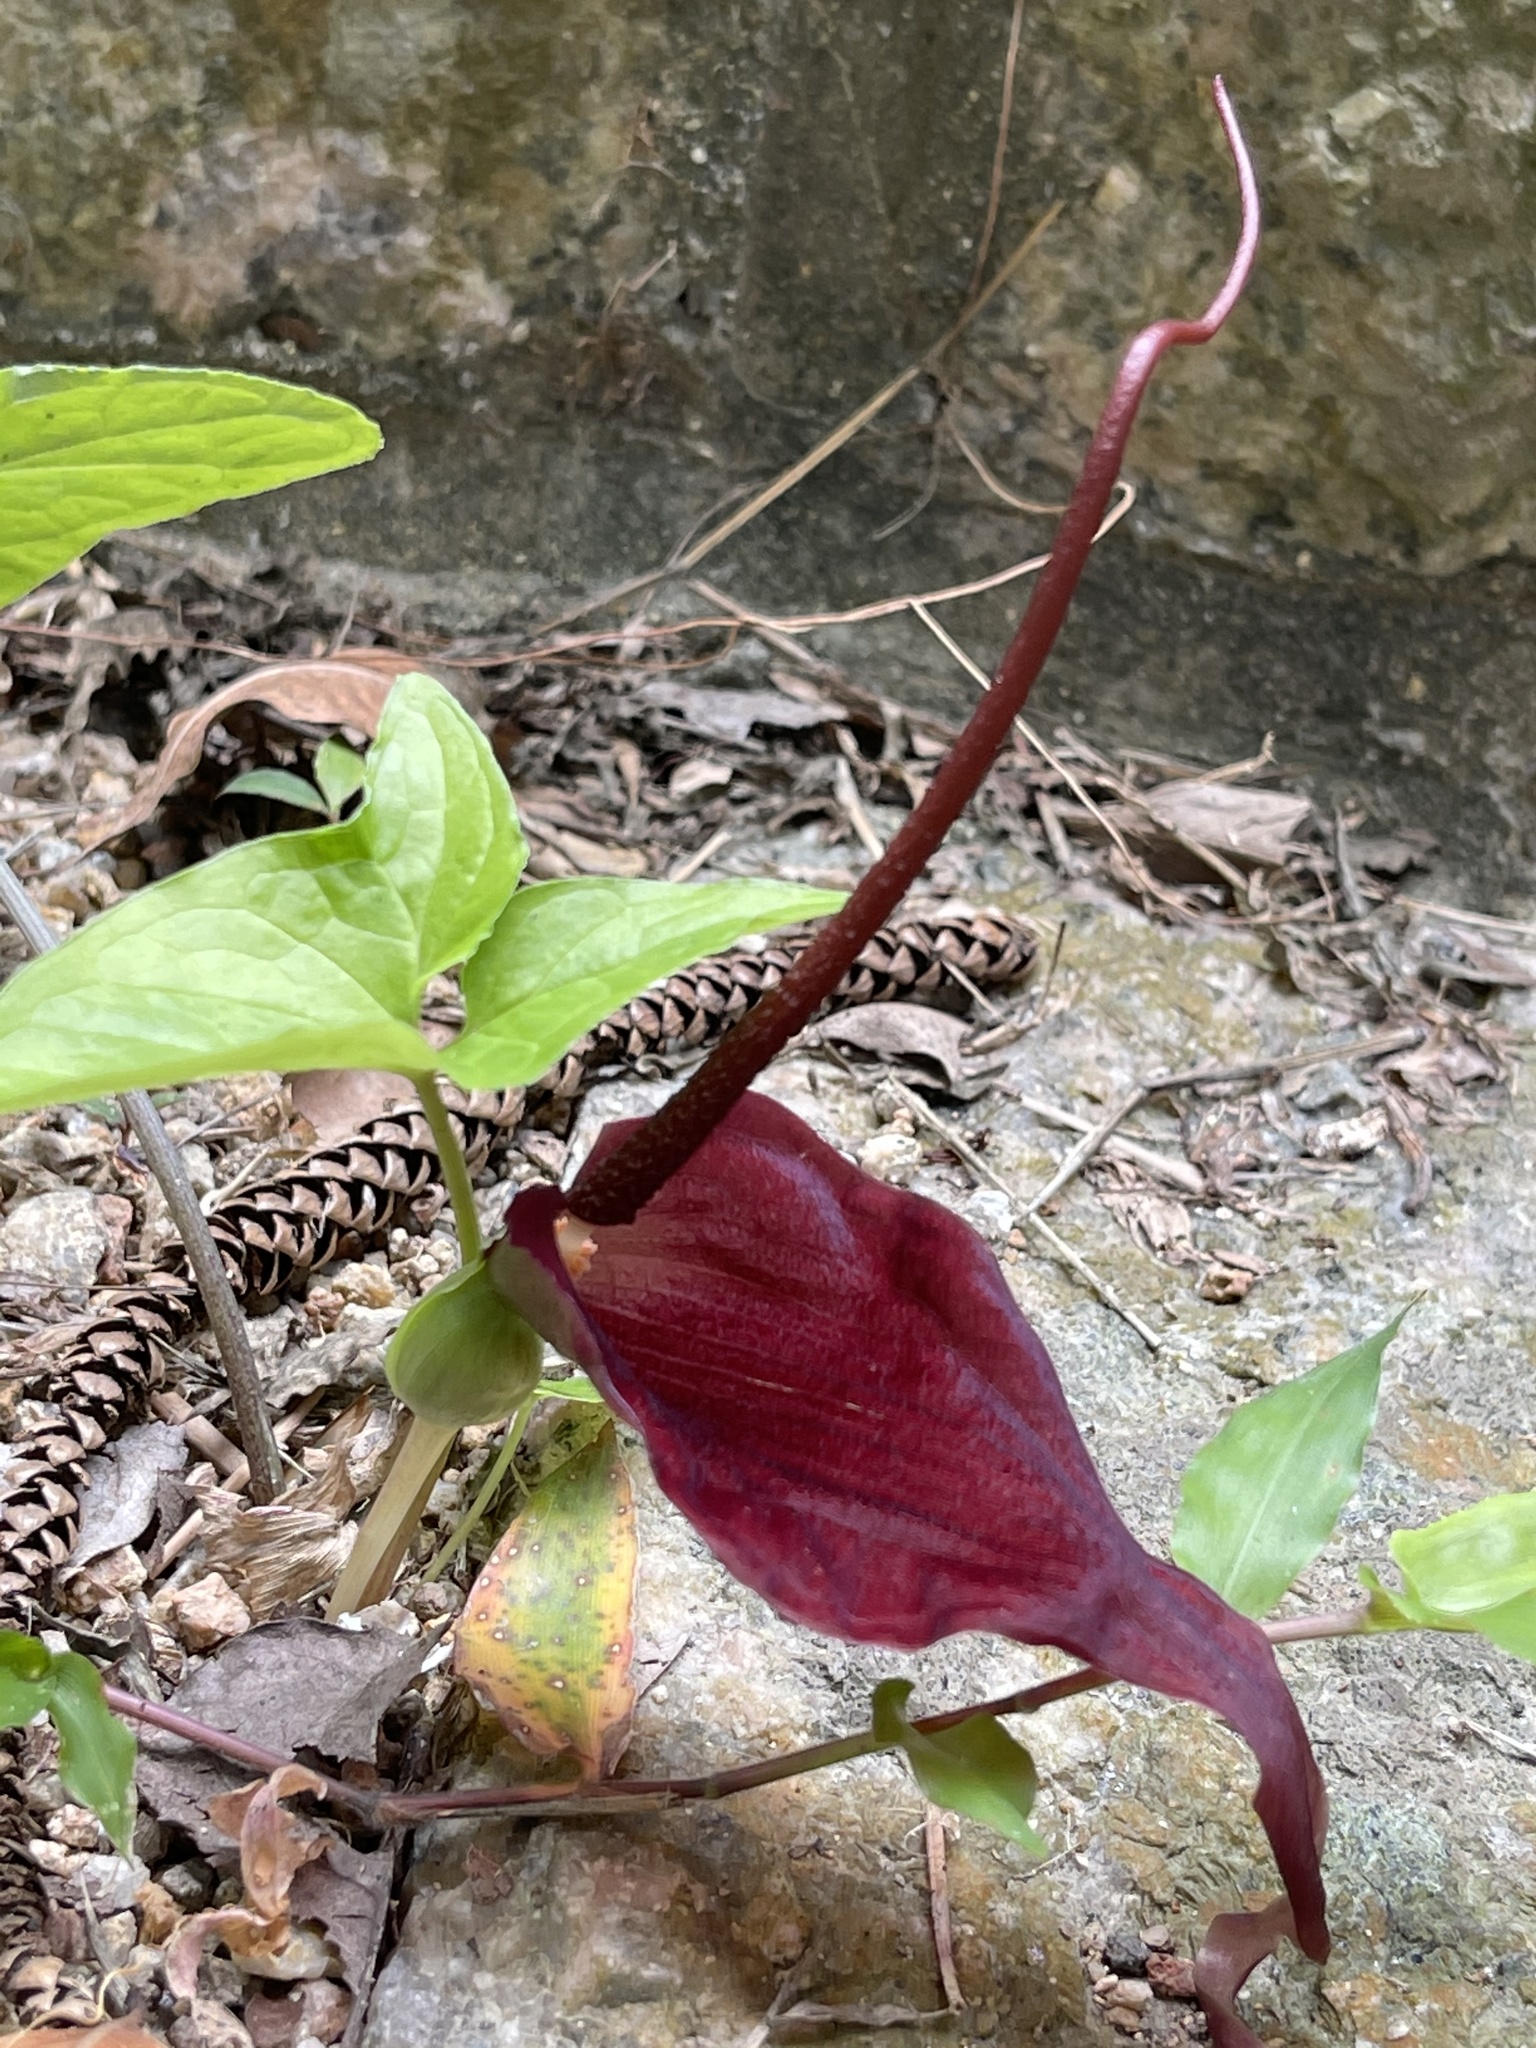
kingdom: Plantae
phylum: Tracheophyta
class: Liliopsida
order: Alismatales
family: Araceae
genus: Typhonium
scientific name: Typhonium blumei
